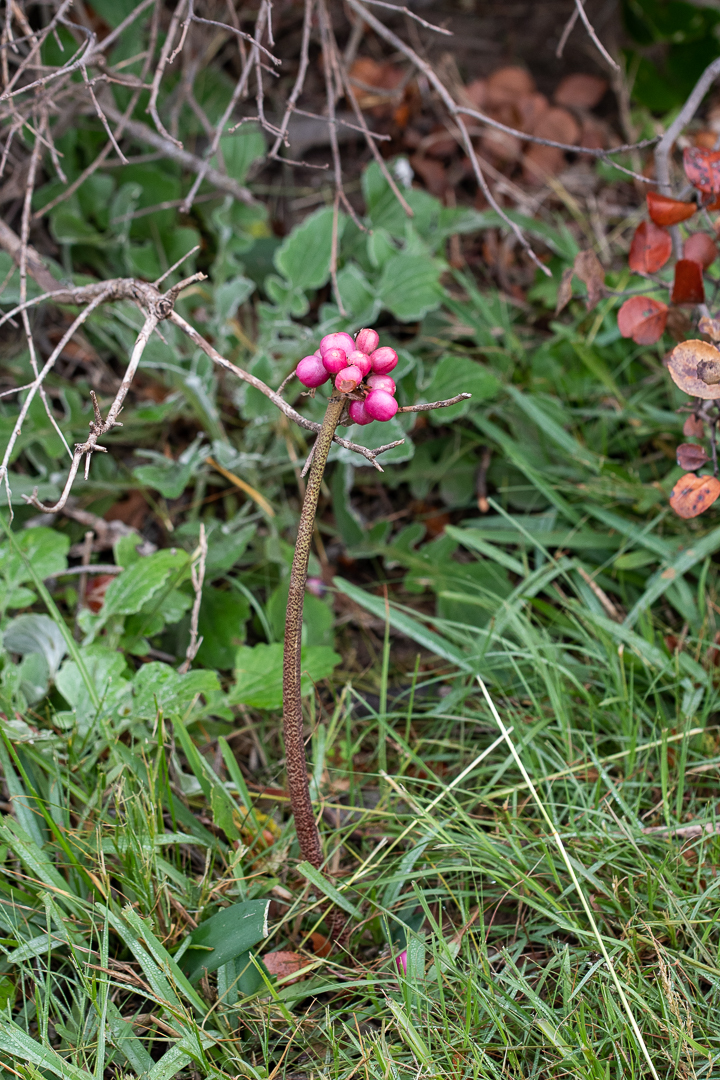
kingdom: Plantae
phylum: Tracheophyta
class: Liliopsida
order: Asparagales
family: Amaryllidaceae
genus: Haemanthus
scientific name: Haemanthus coccineus
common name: Cape-tulip
